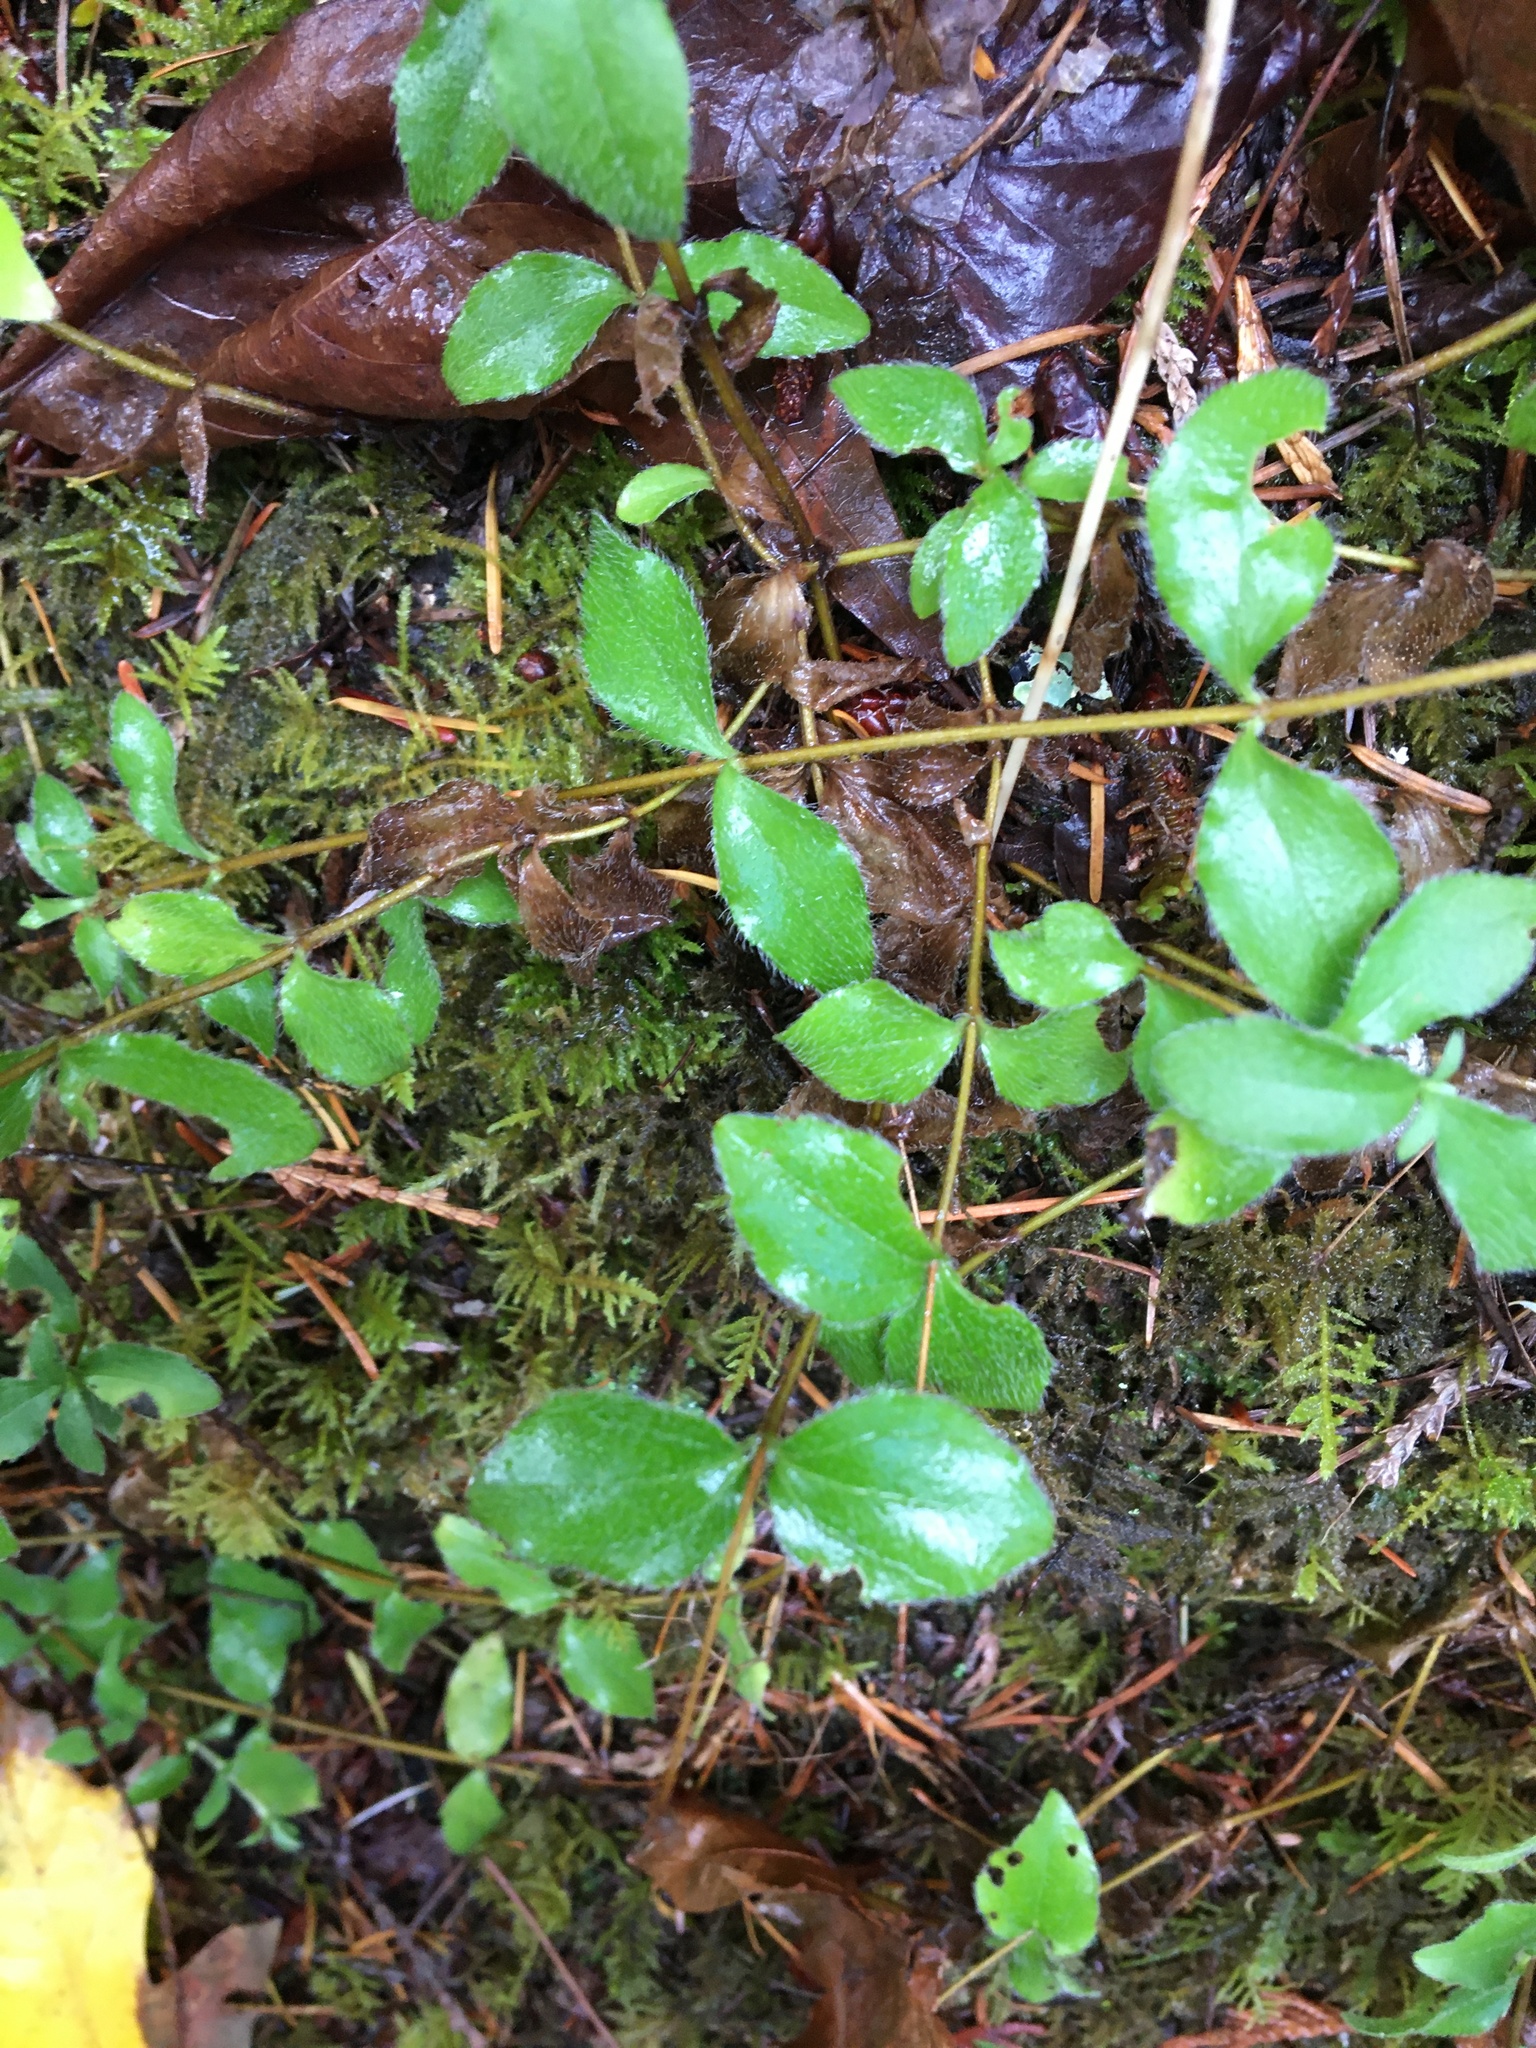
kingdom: Plantae
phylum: Tracheophyta
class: Magnoliopsida
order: Cornales
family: Hydrangeaceae
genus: Whipplea
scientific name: Whipplea modesta
